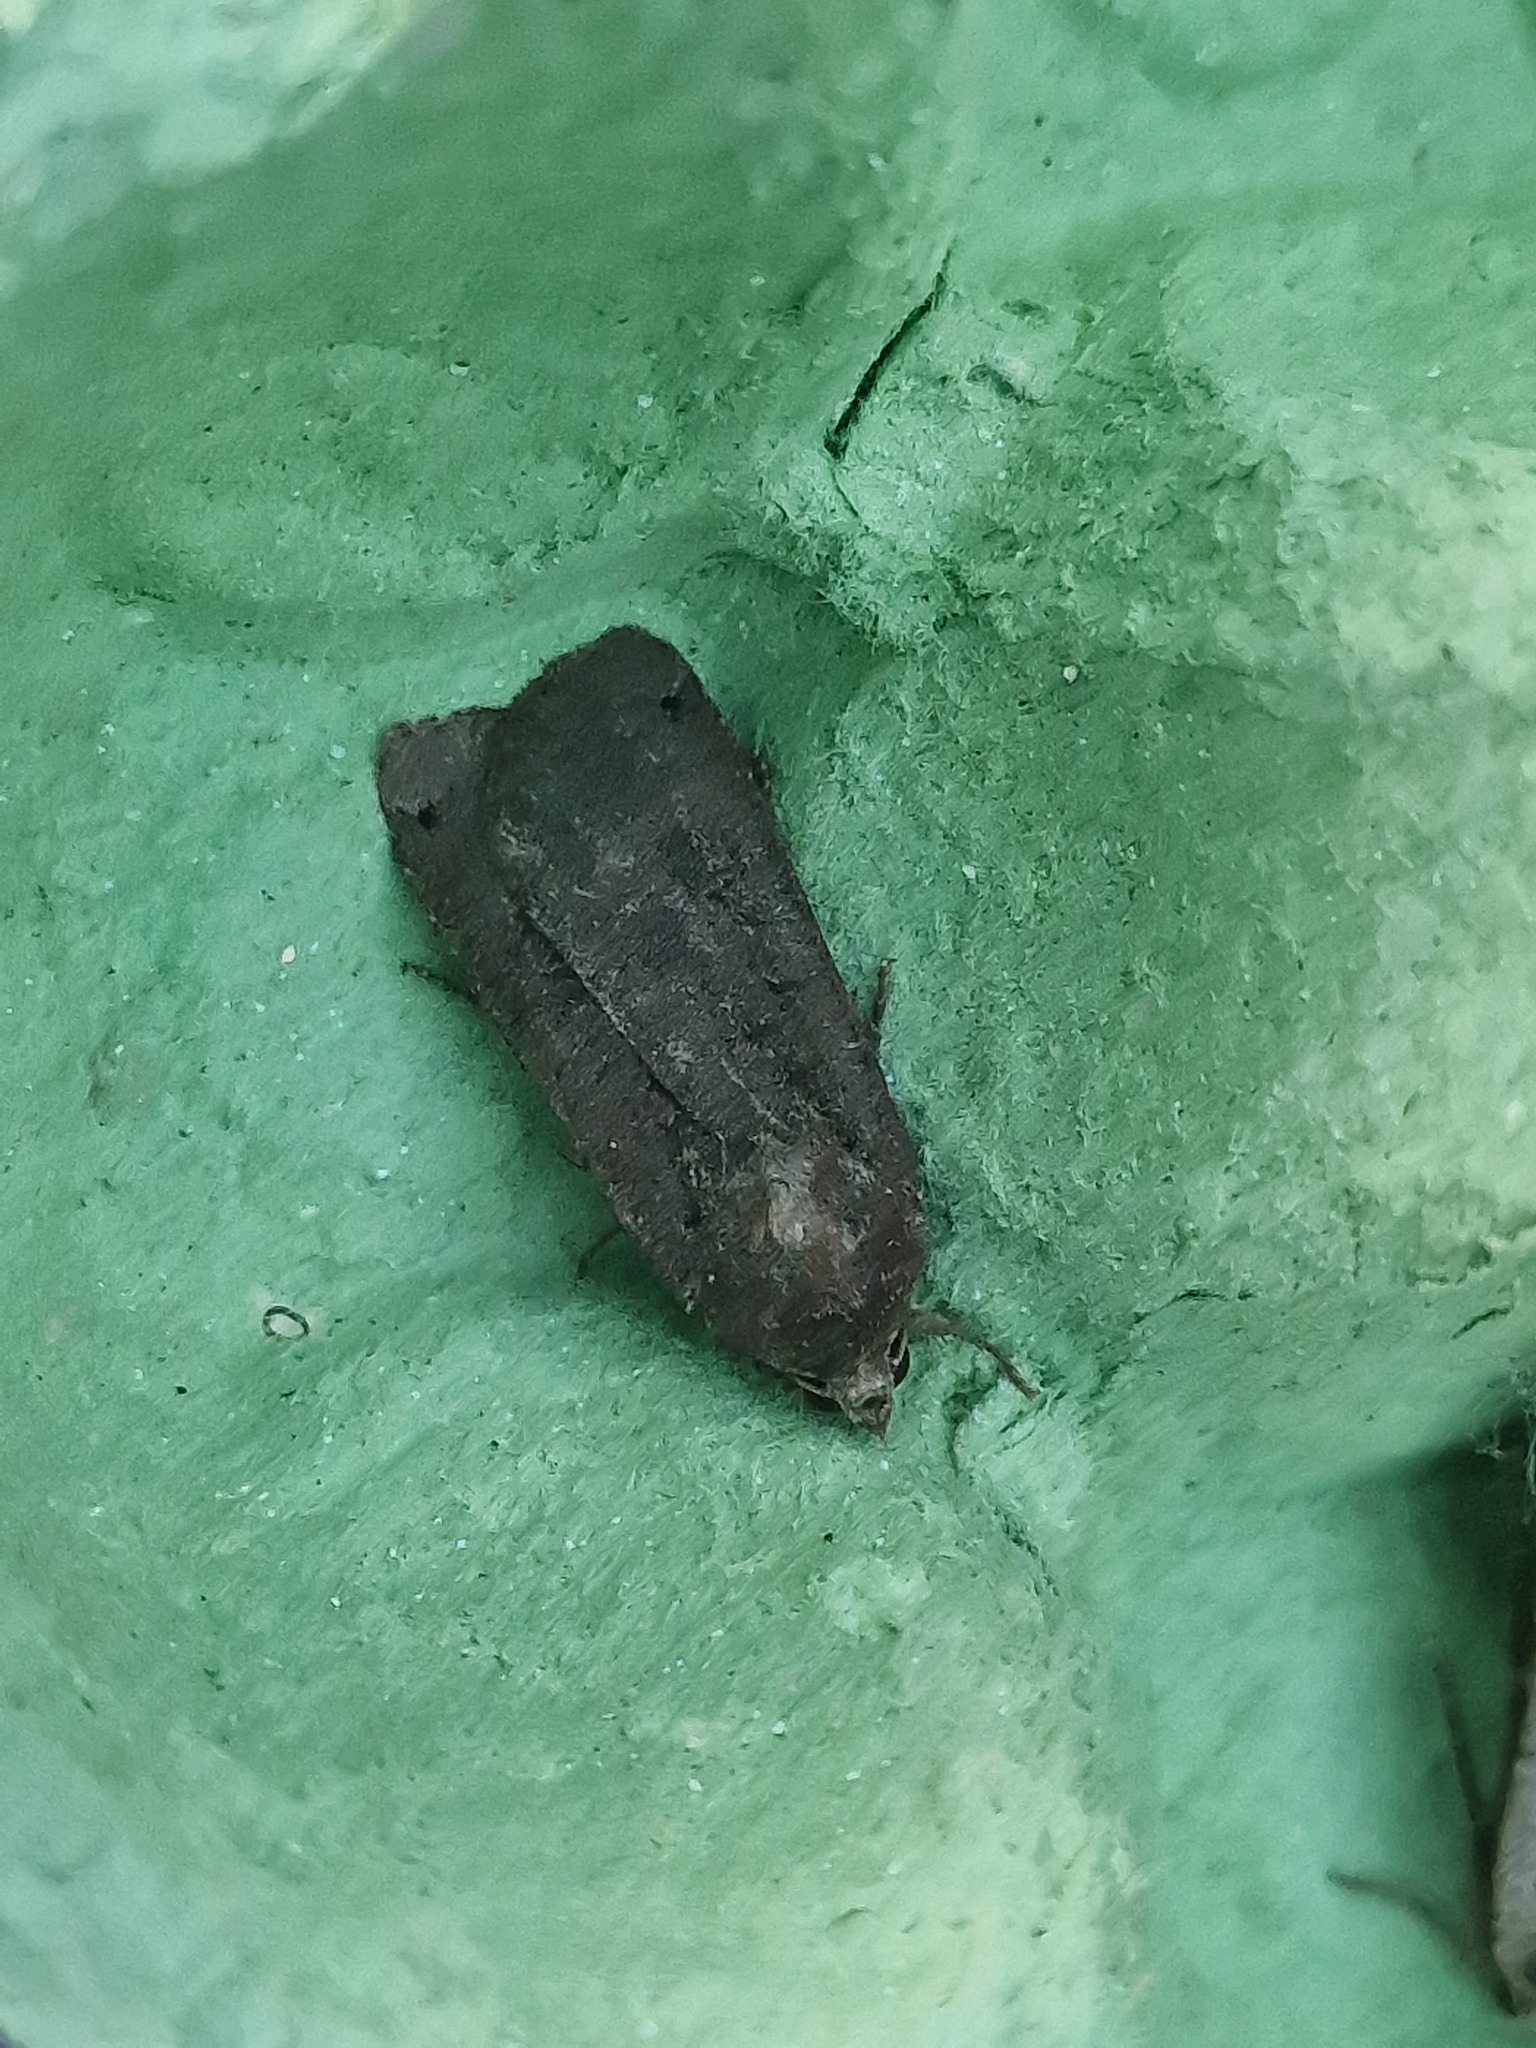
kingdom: Animalia
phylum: Arthropoda
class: Insecta
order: Lepidoptera
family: Noctuidae
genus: Noctua
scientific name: Noctua pronuba
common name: Large yellow underwing
